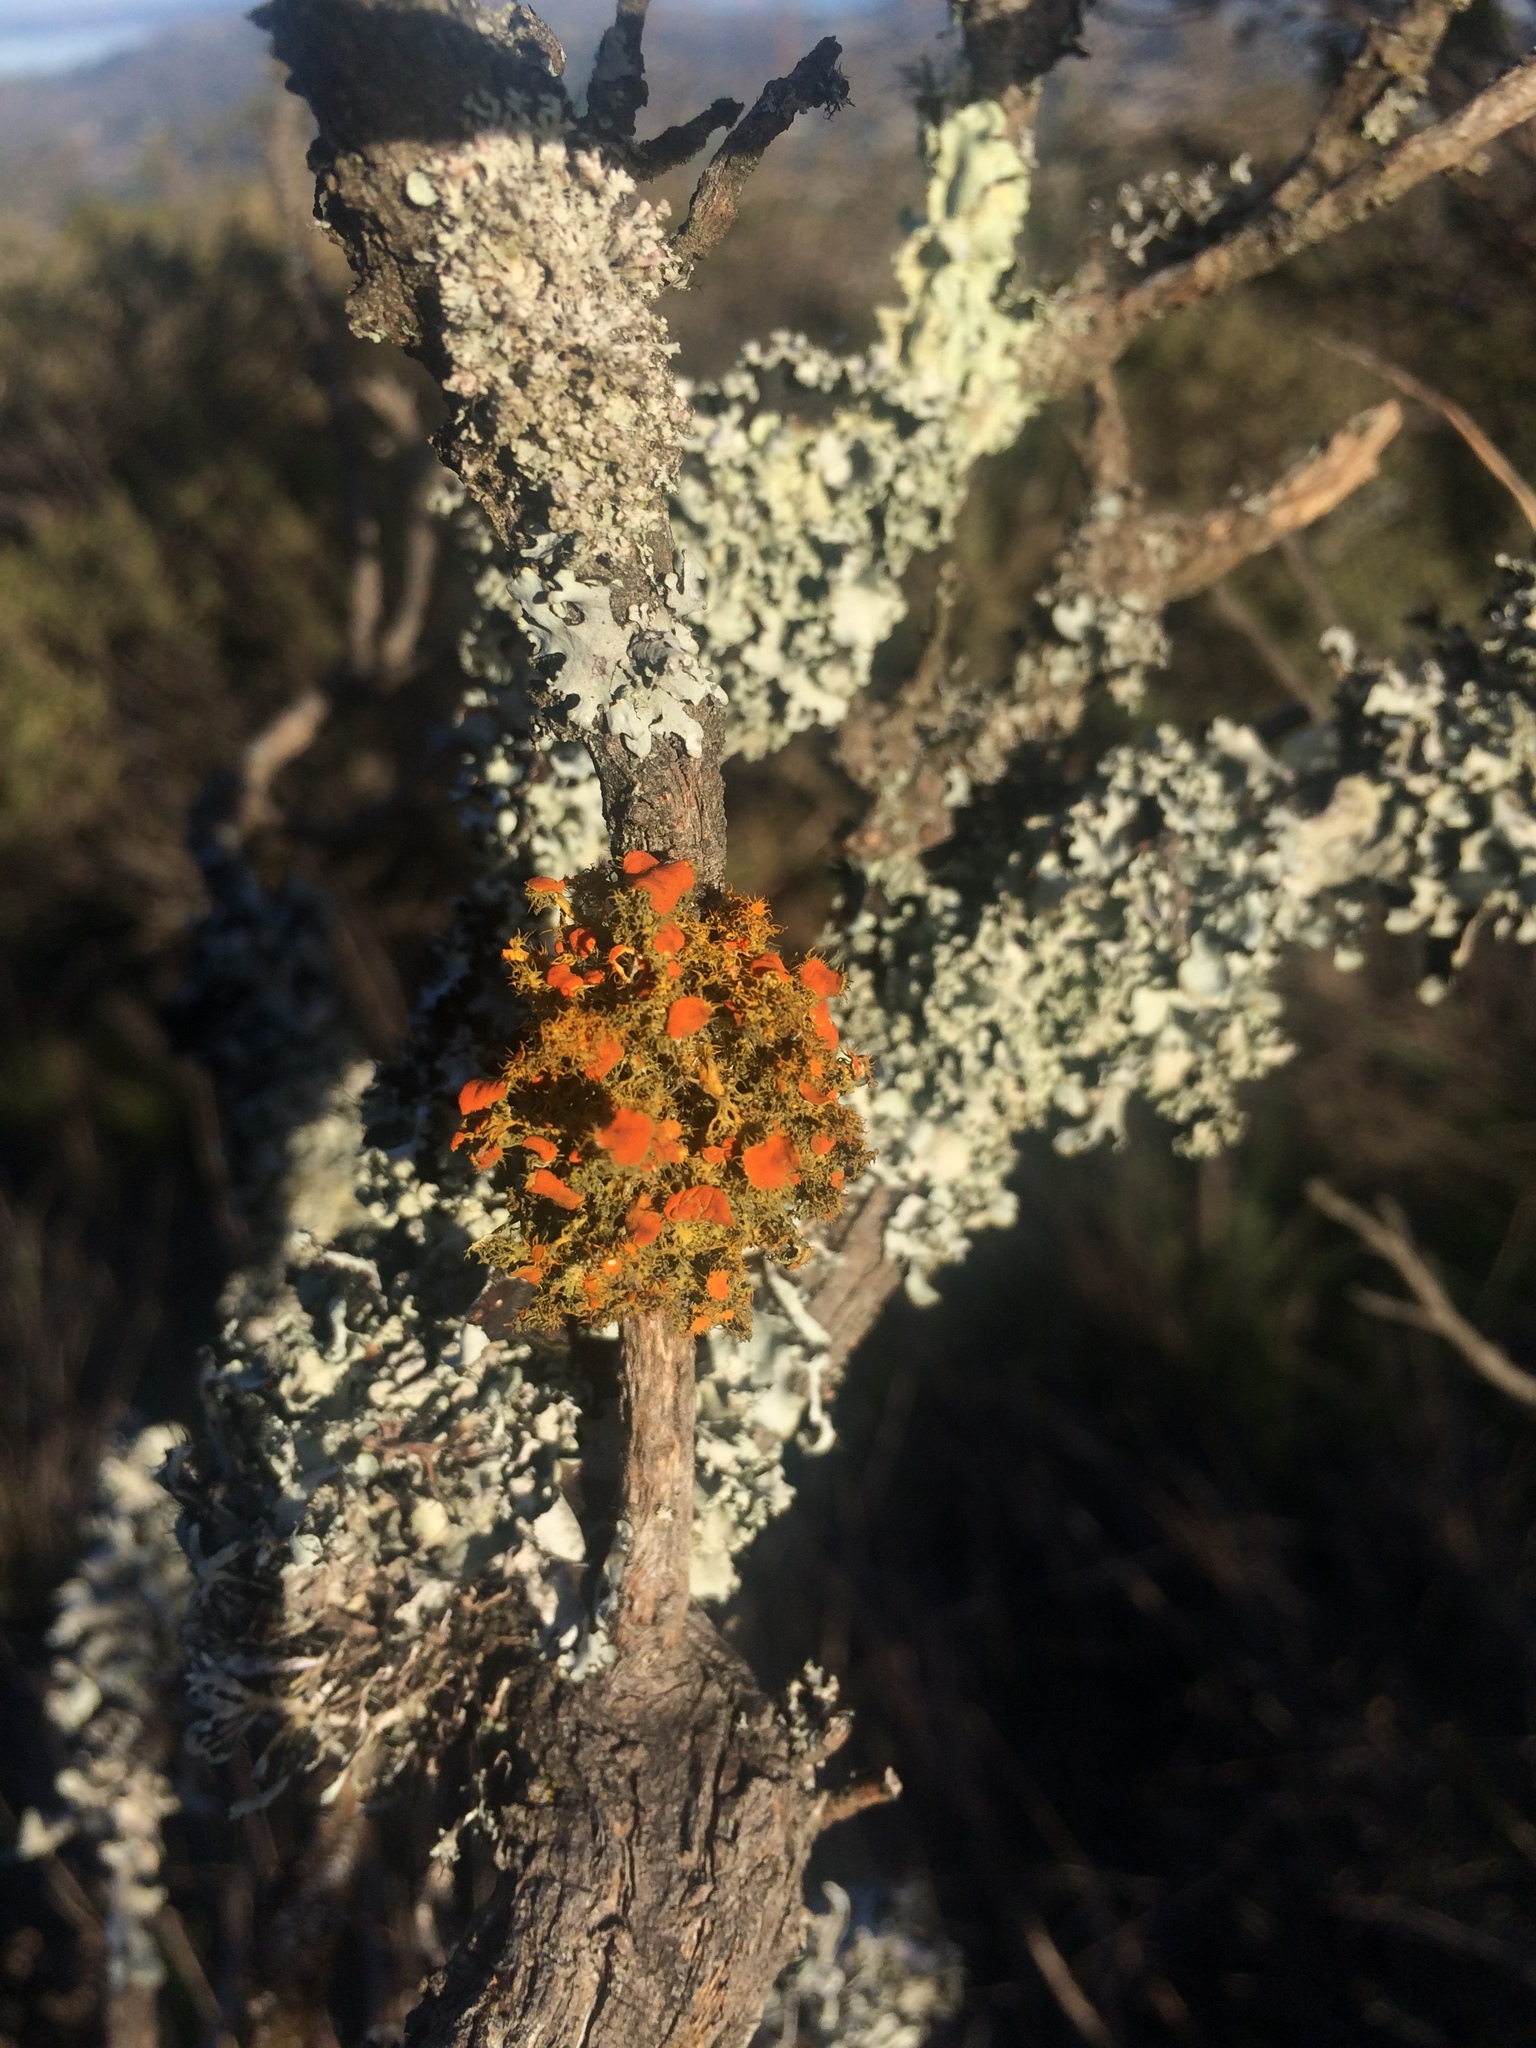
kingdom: Fungi
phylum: Ascomycota
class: Lecanoromycetes
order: Teloschistales
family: Teloschistaceae
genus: Niorma
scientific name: Niorma chrysophthalma
